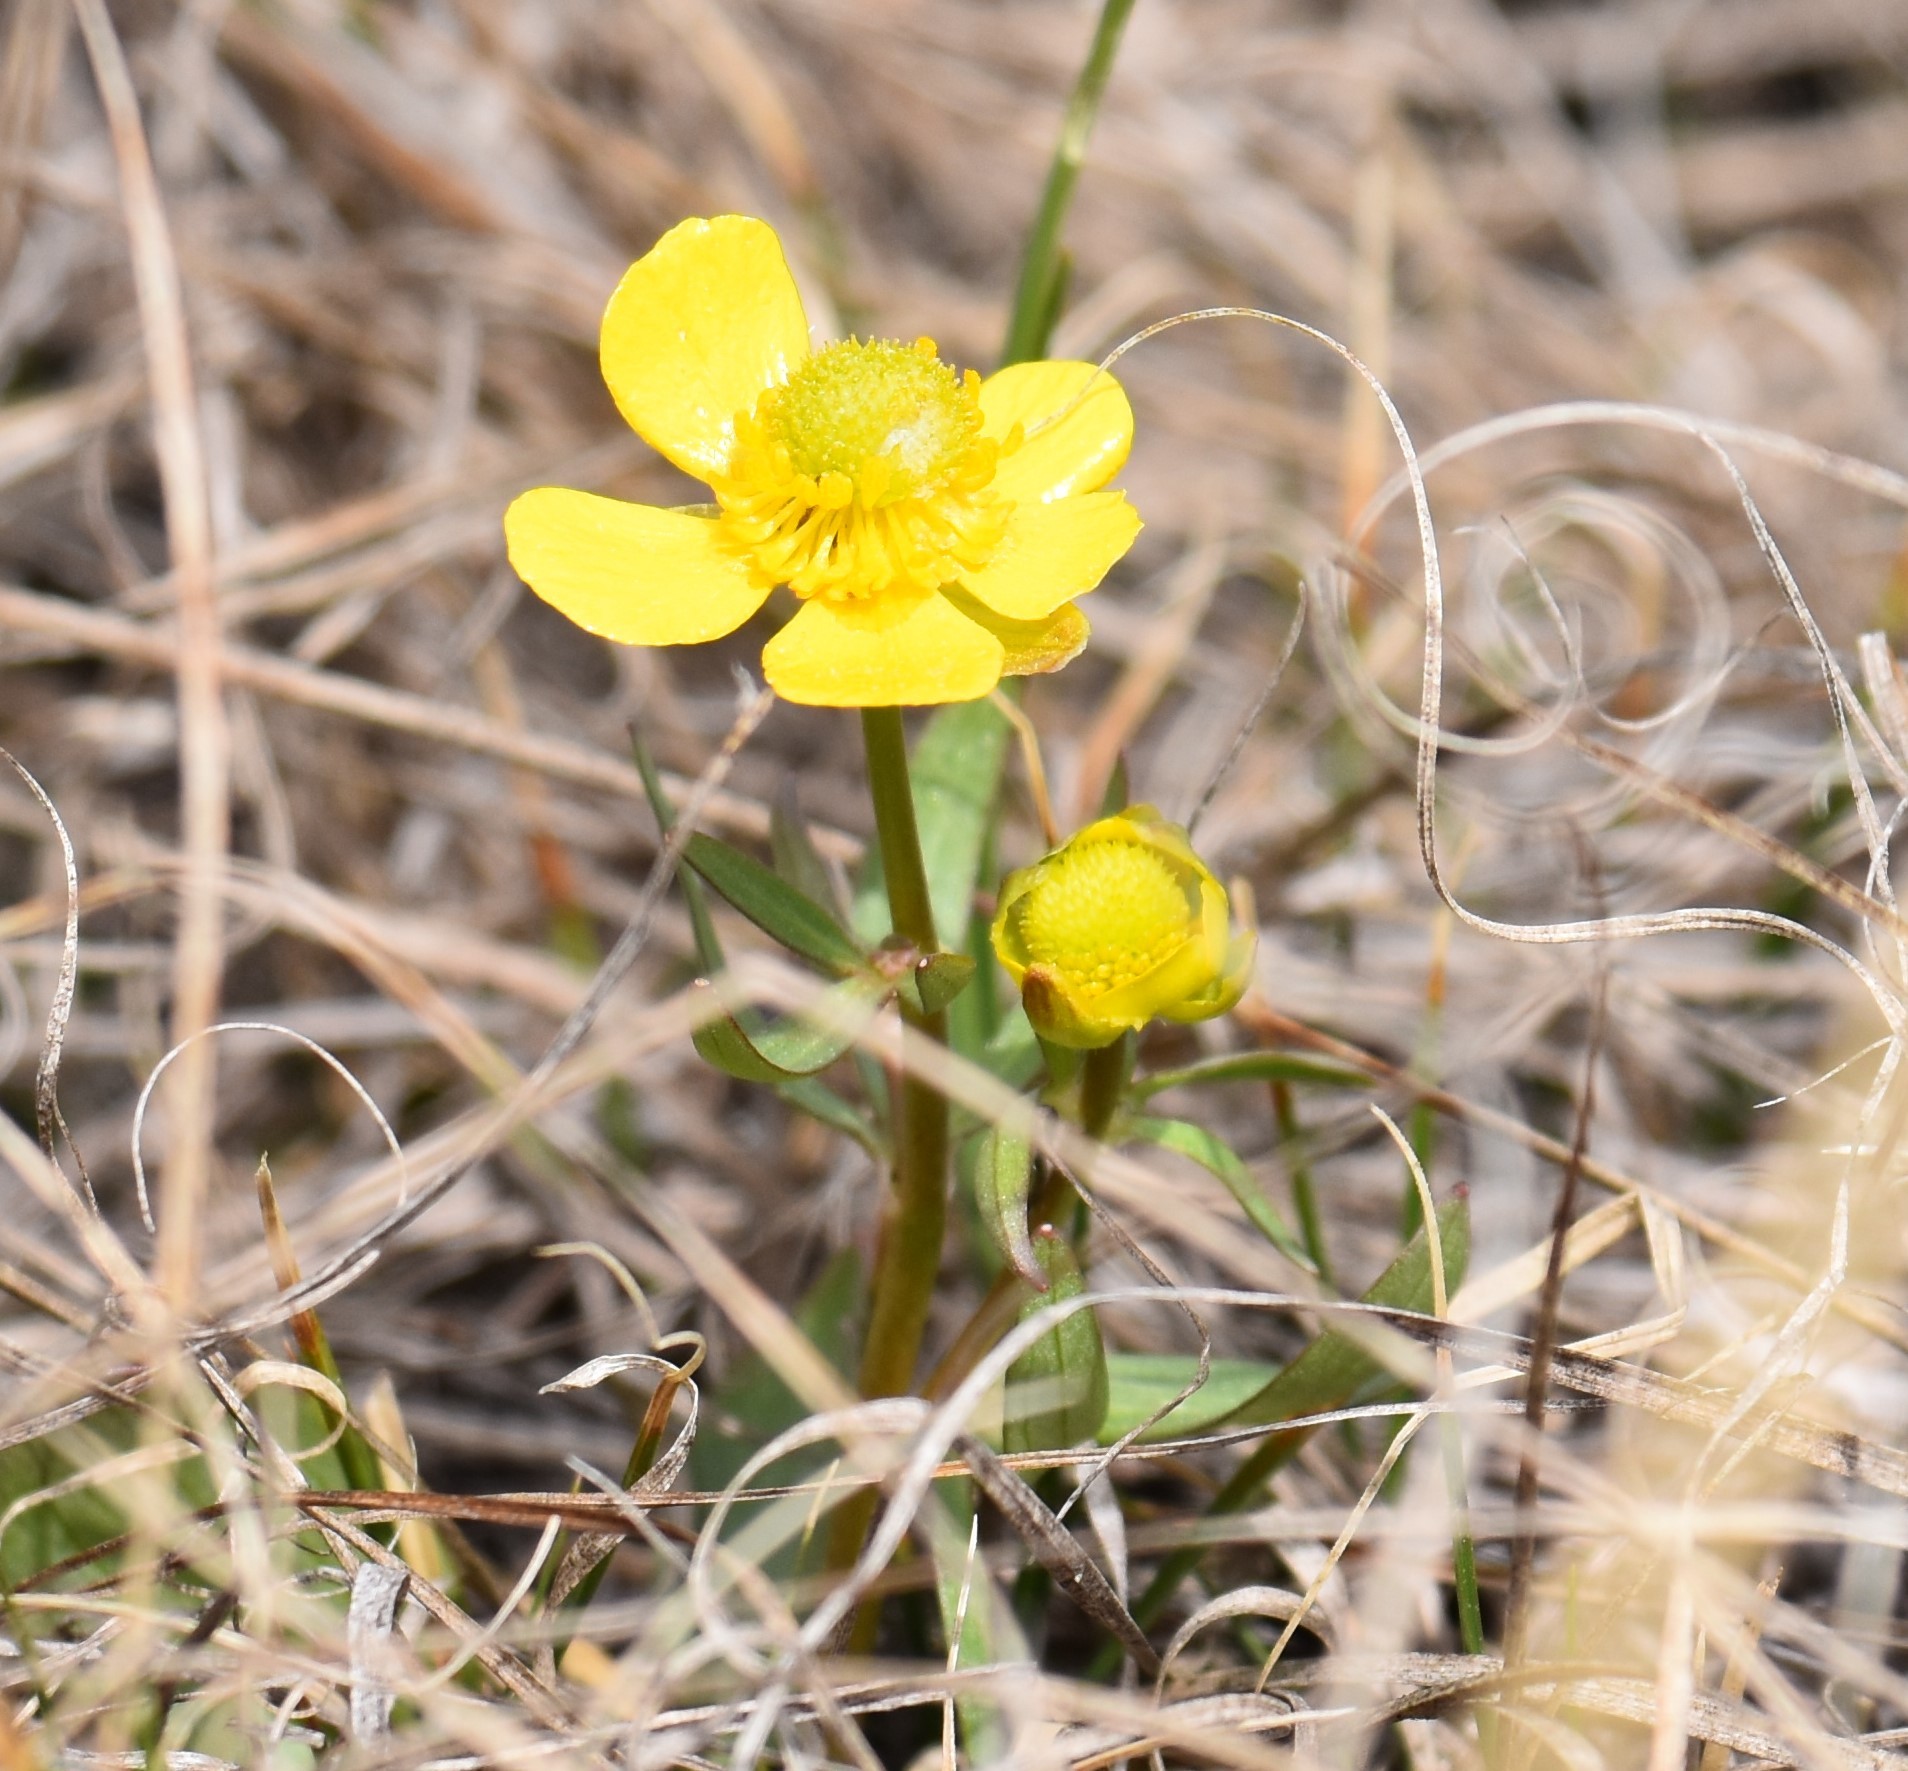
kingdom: Plantae
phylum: Tracheophyta
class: Magnoliopsida
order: Ranunculales
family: Ranunculaceae
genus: Ranunculus
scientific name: Ranunculus rhomboideus
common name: Prairie buttercup
